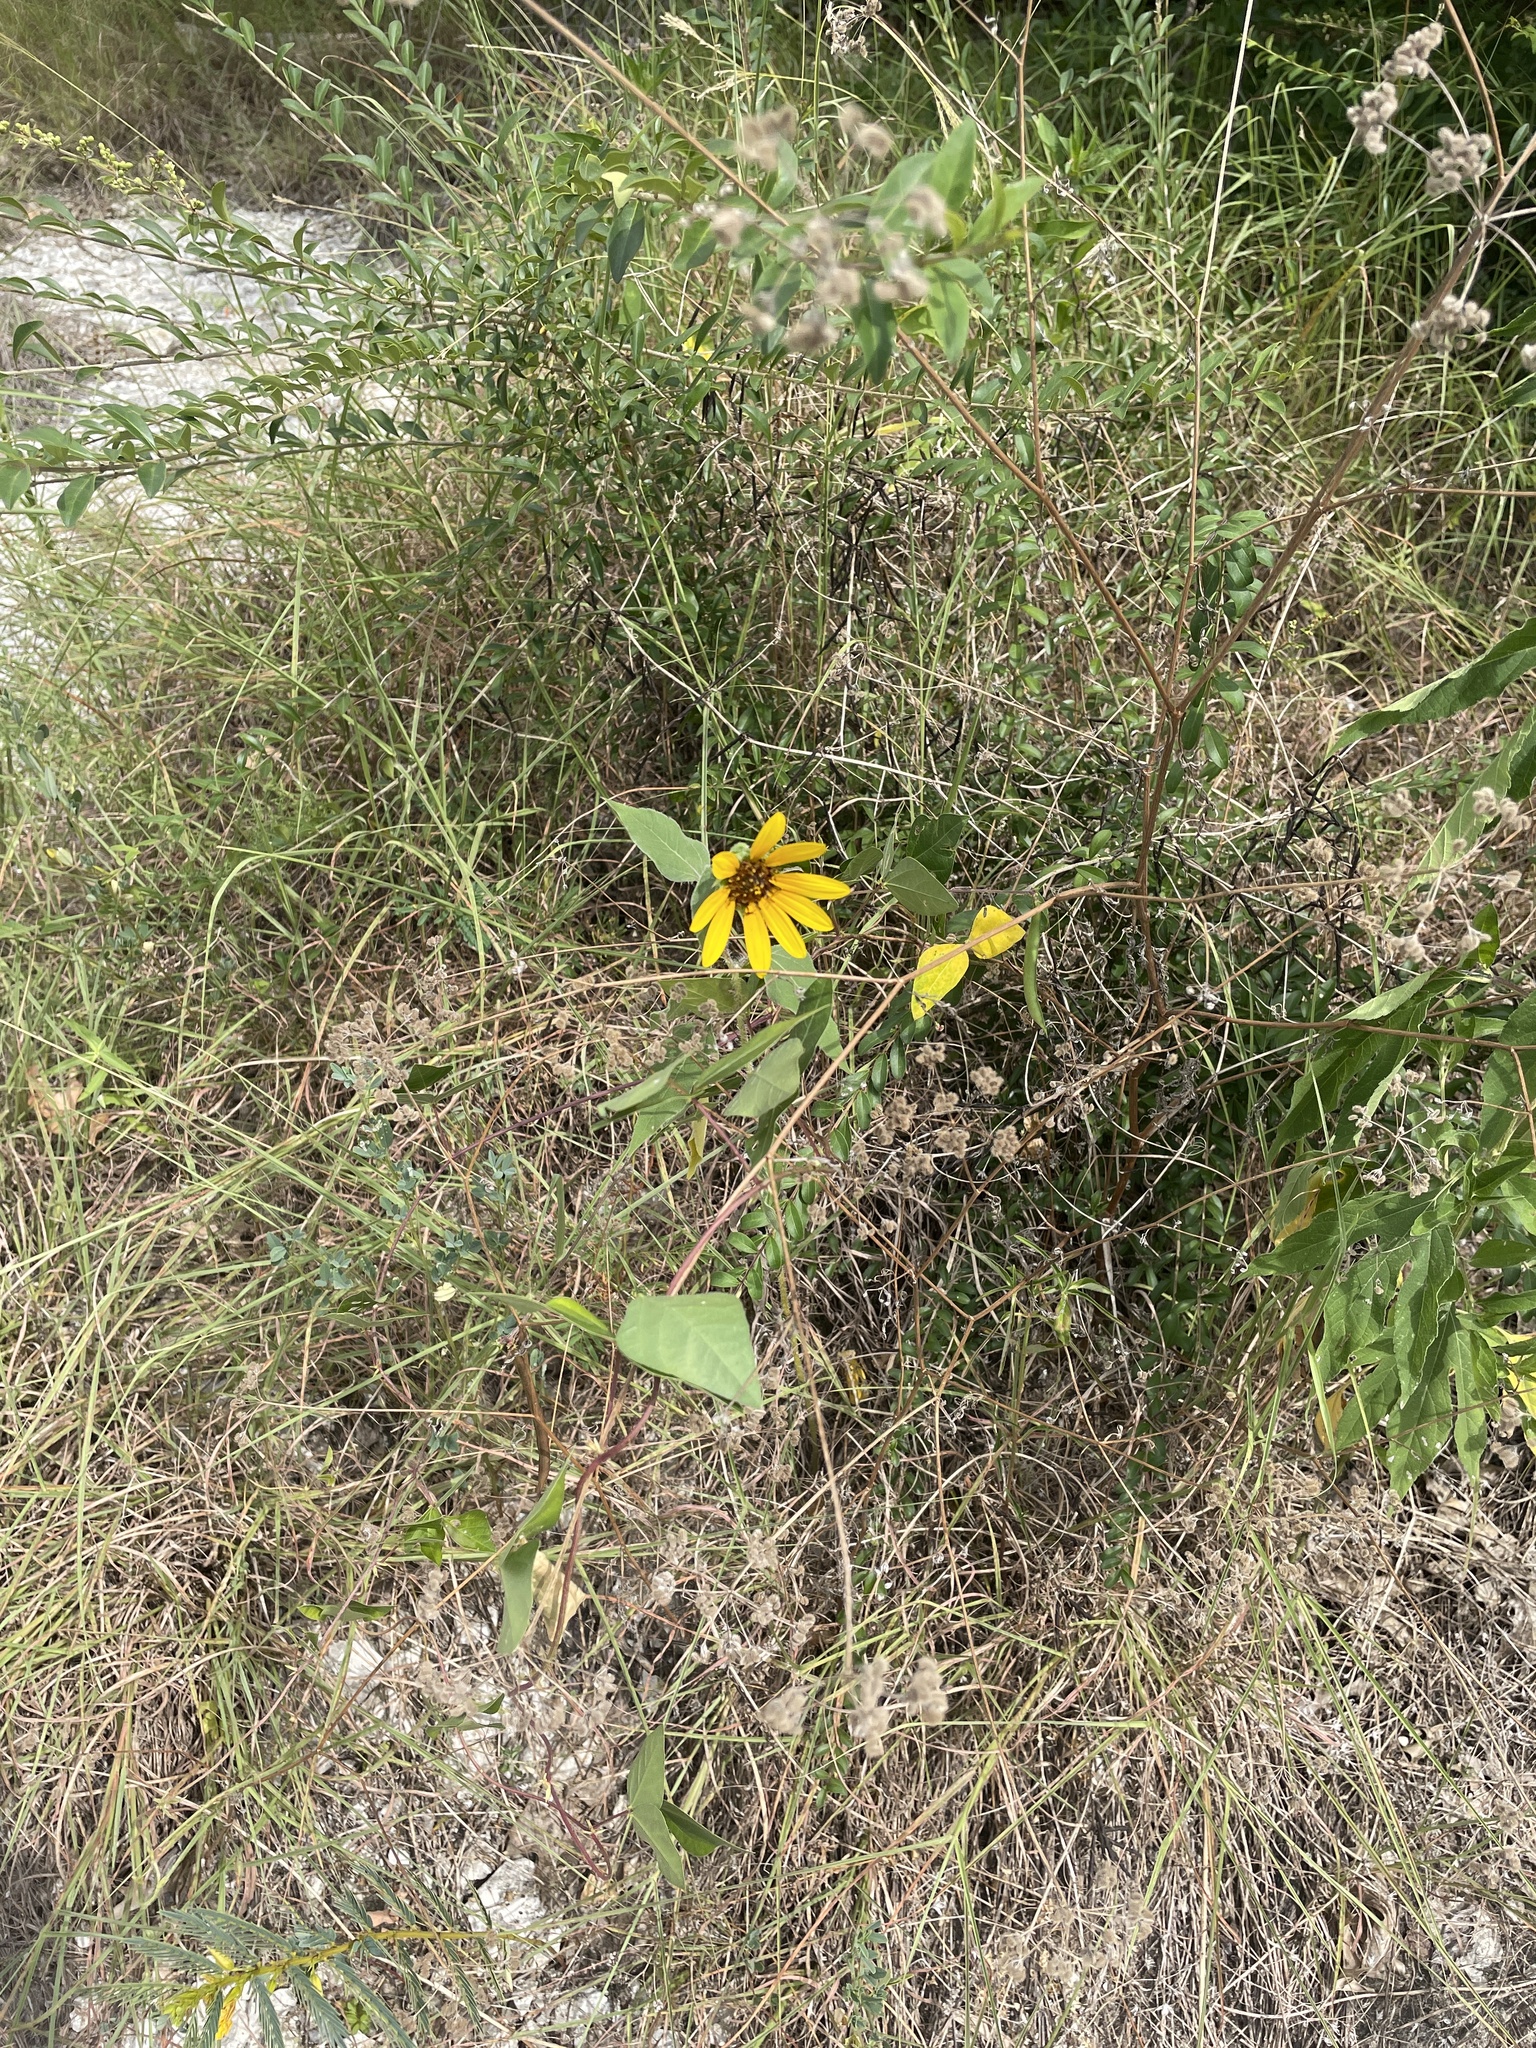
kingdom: Plantae
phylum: Tracheophyta
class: Magnoliopsida
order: Asterales
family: Asteraceae
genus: Helianthus
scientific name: Helianthus annuus
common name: Sunflower
